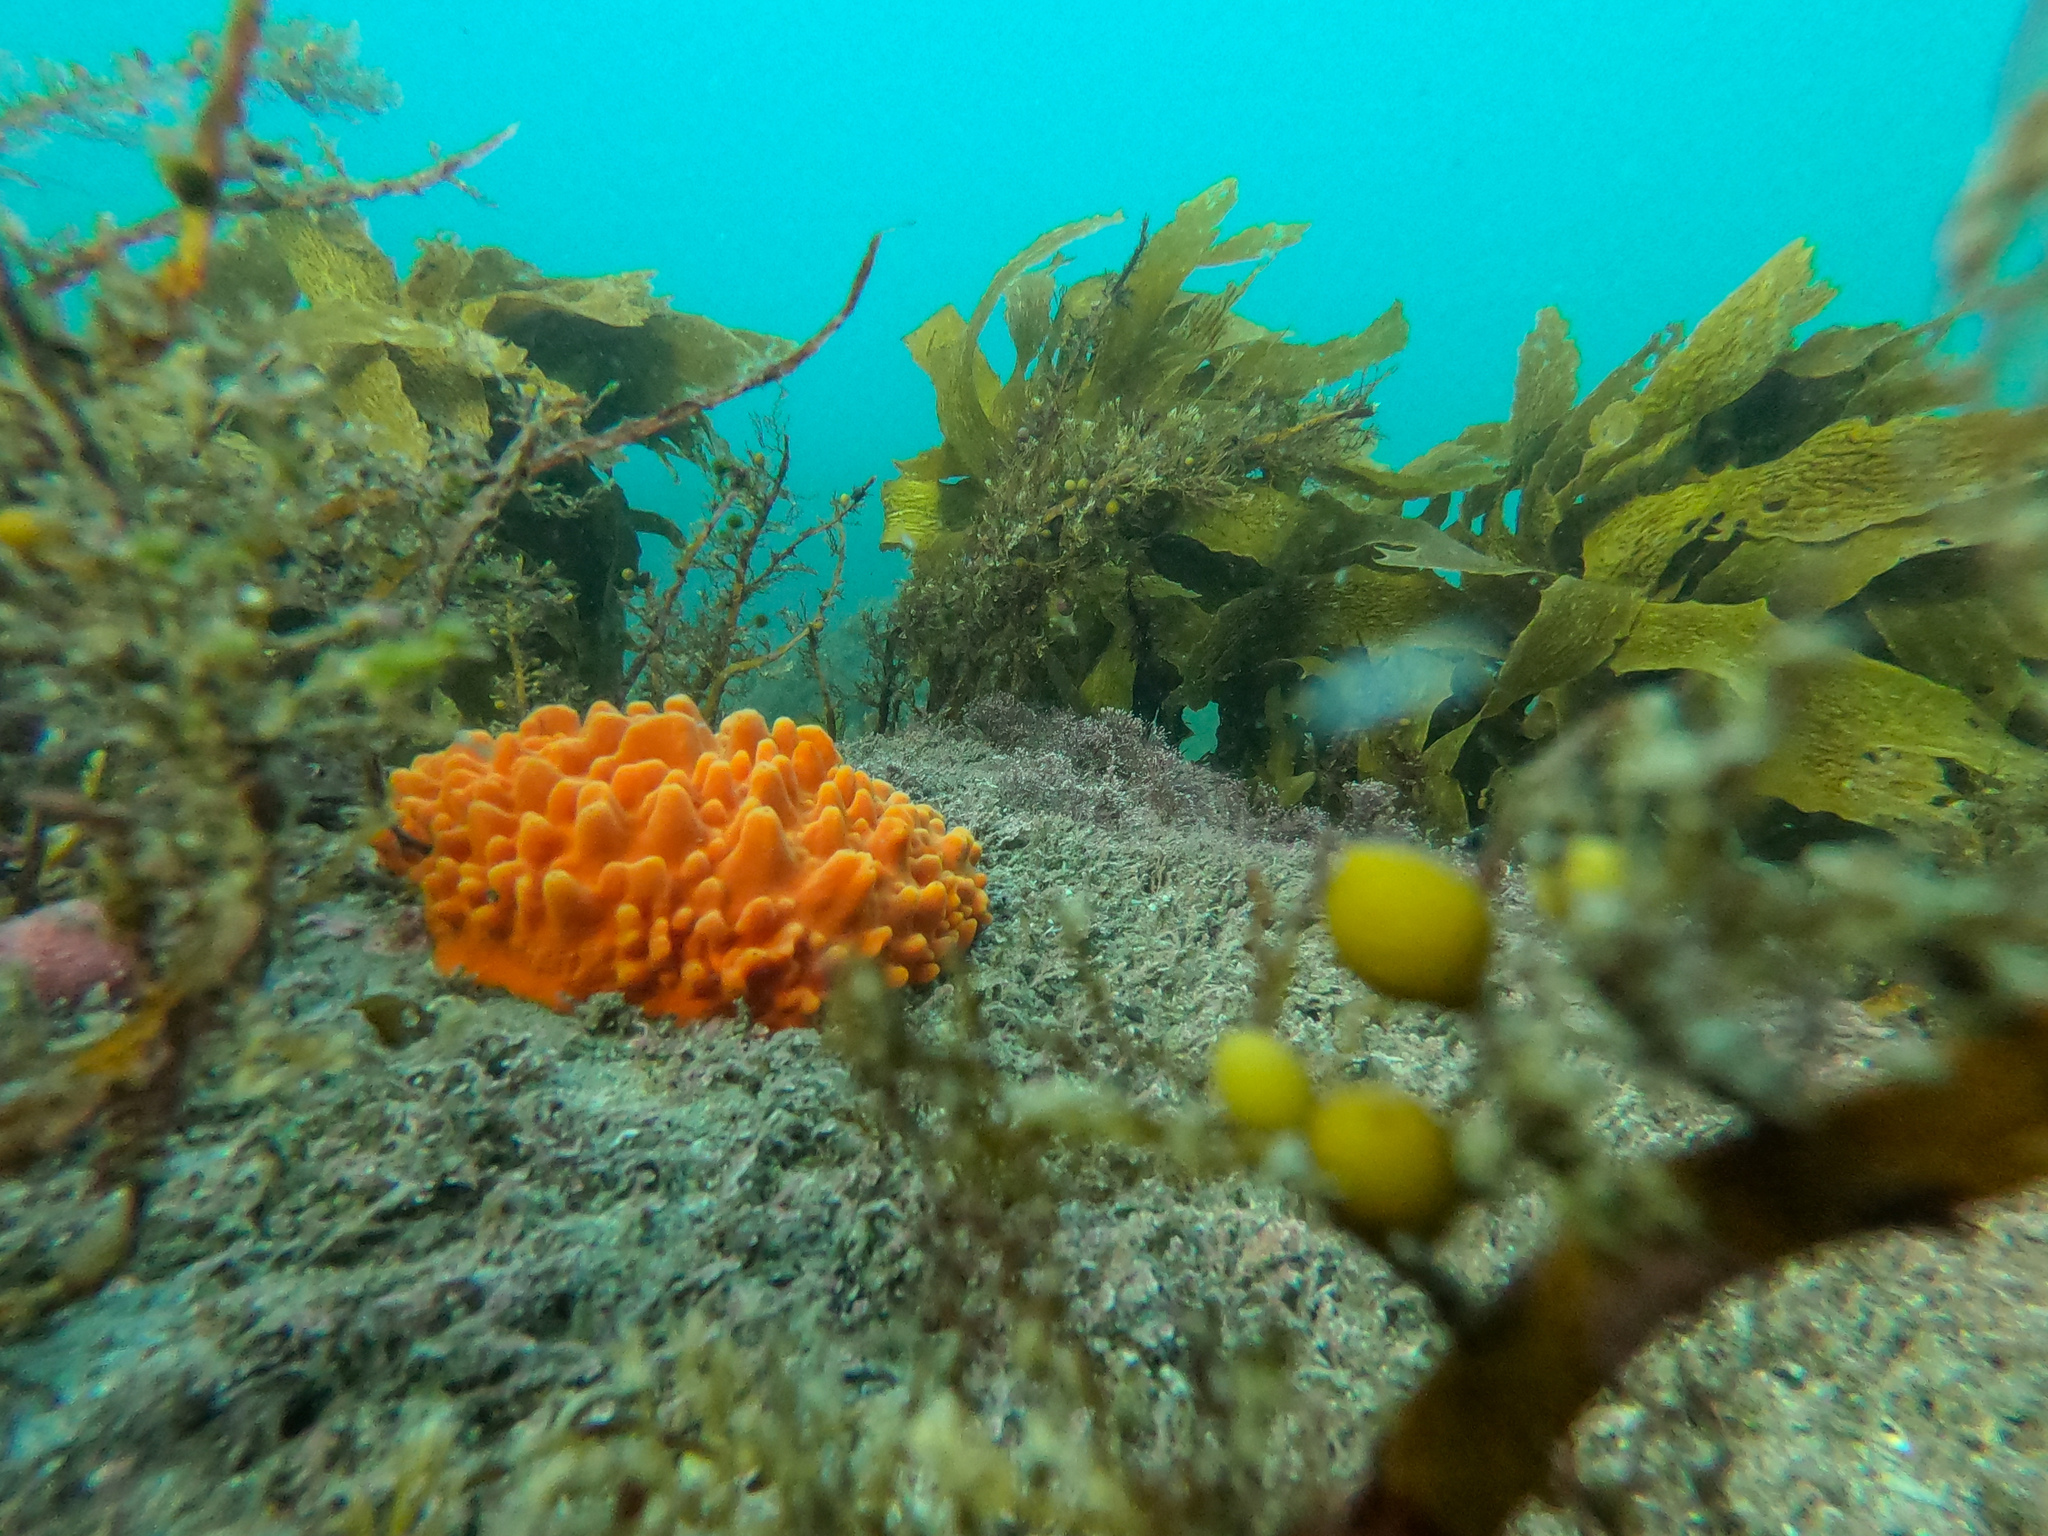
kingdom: Animalia
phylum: Porifera
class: Demospongiae
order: Polymastiida
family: Polymastiidae
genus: Polymastia
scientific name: Polymastia aurantia
